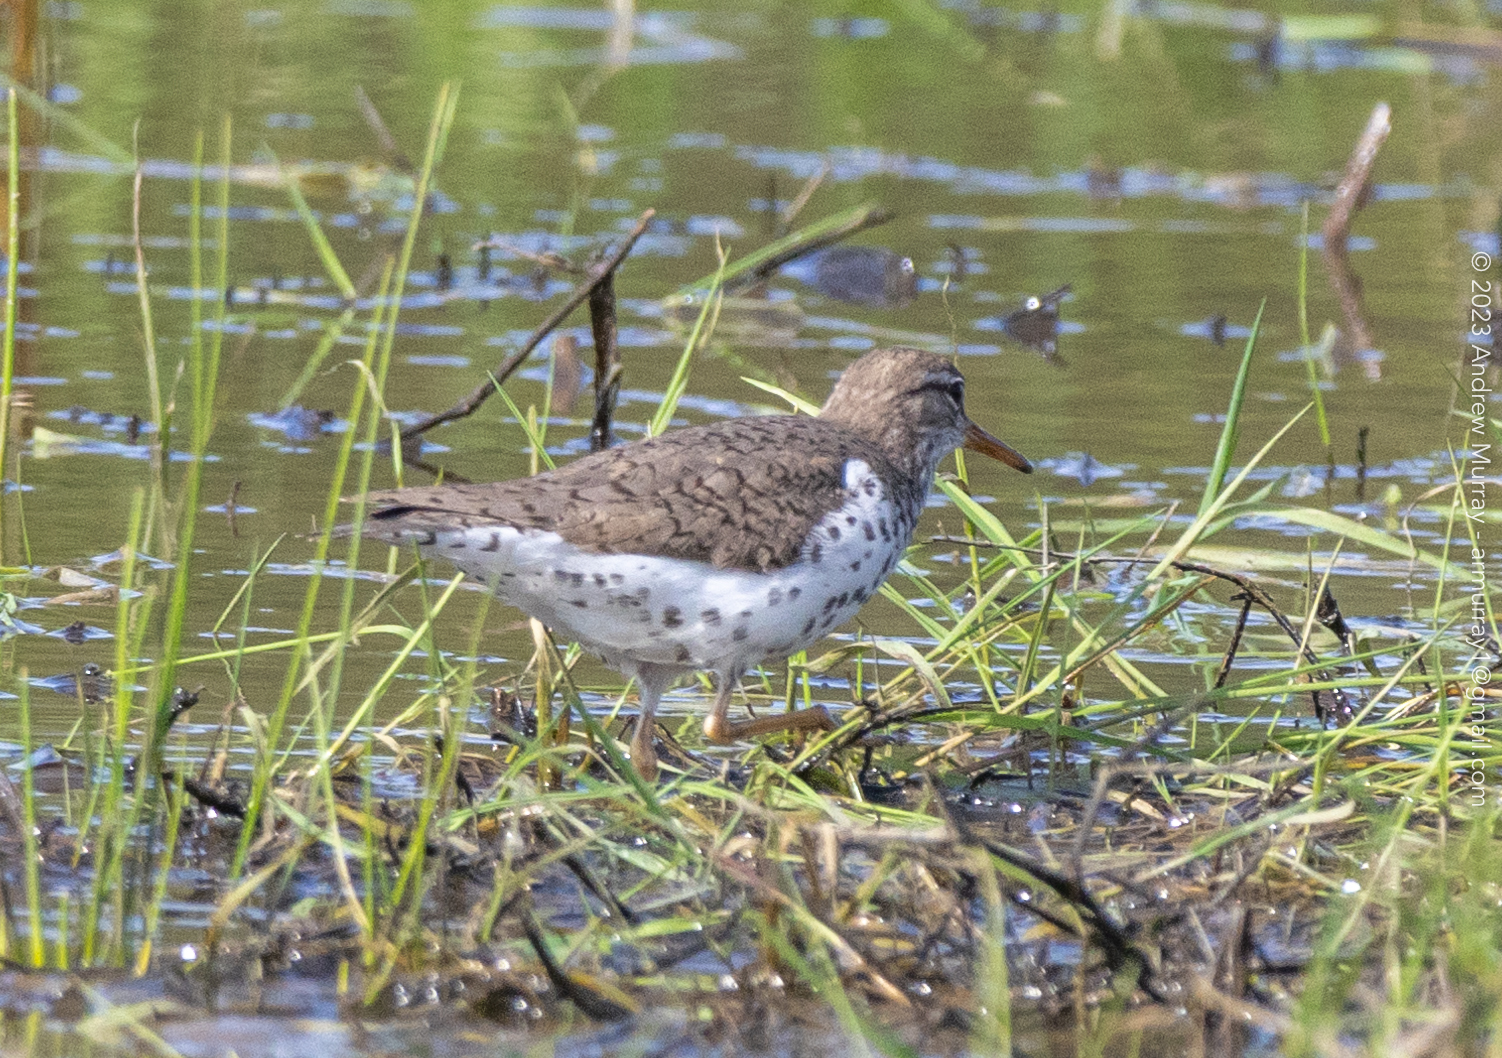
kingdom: Animalia
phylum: Chordata
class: Aves
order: Charadriiformes
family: Scolopacidae
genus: Actitis
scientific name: Actitis macularius
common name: Spotted sandpiper
